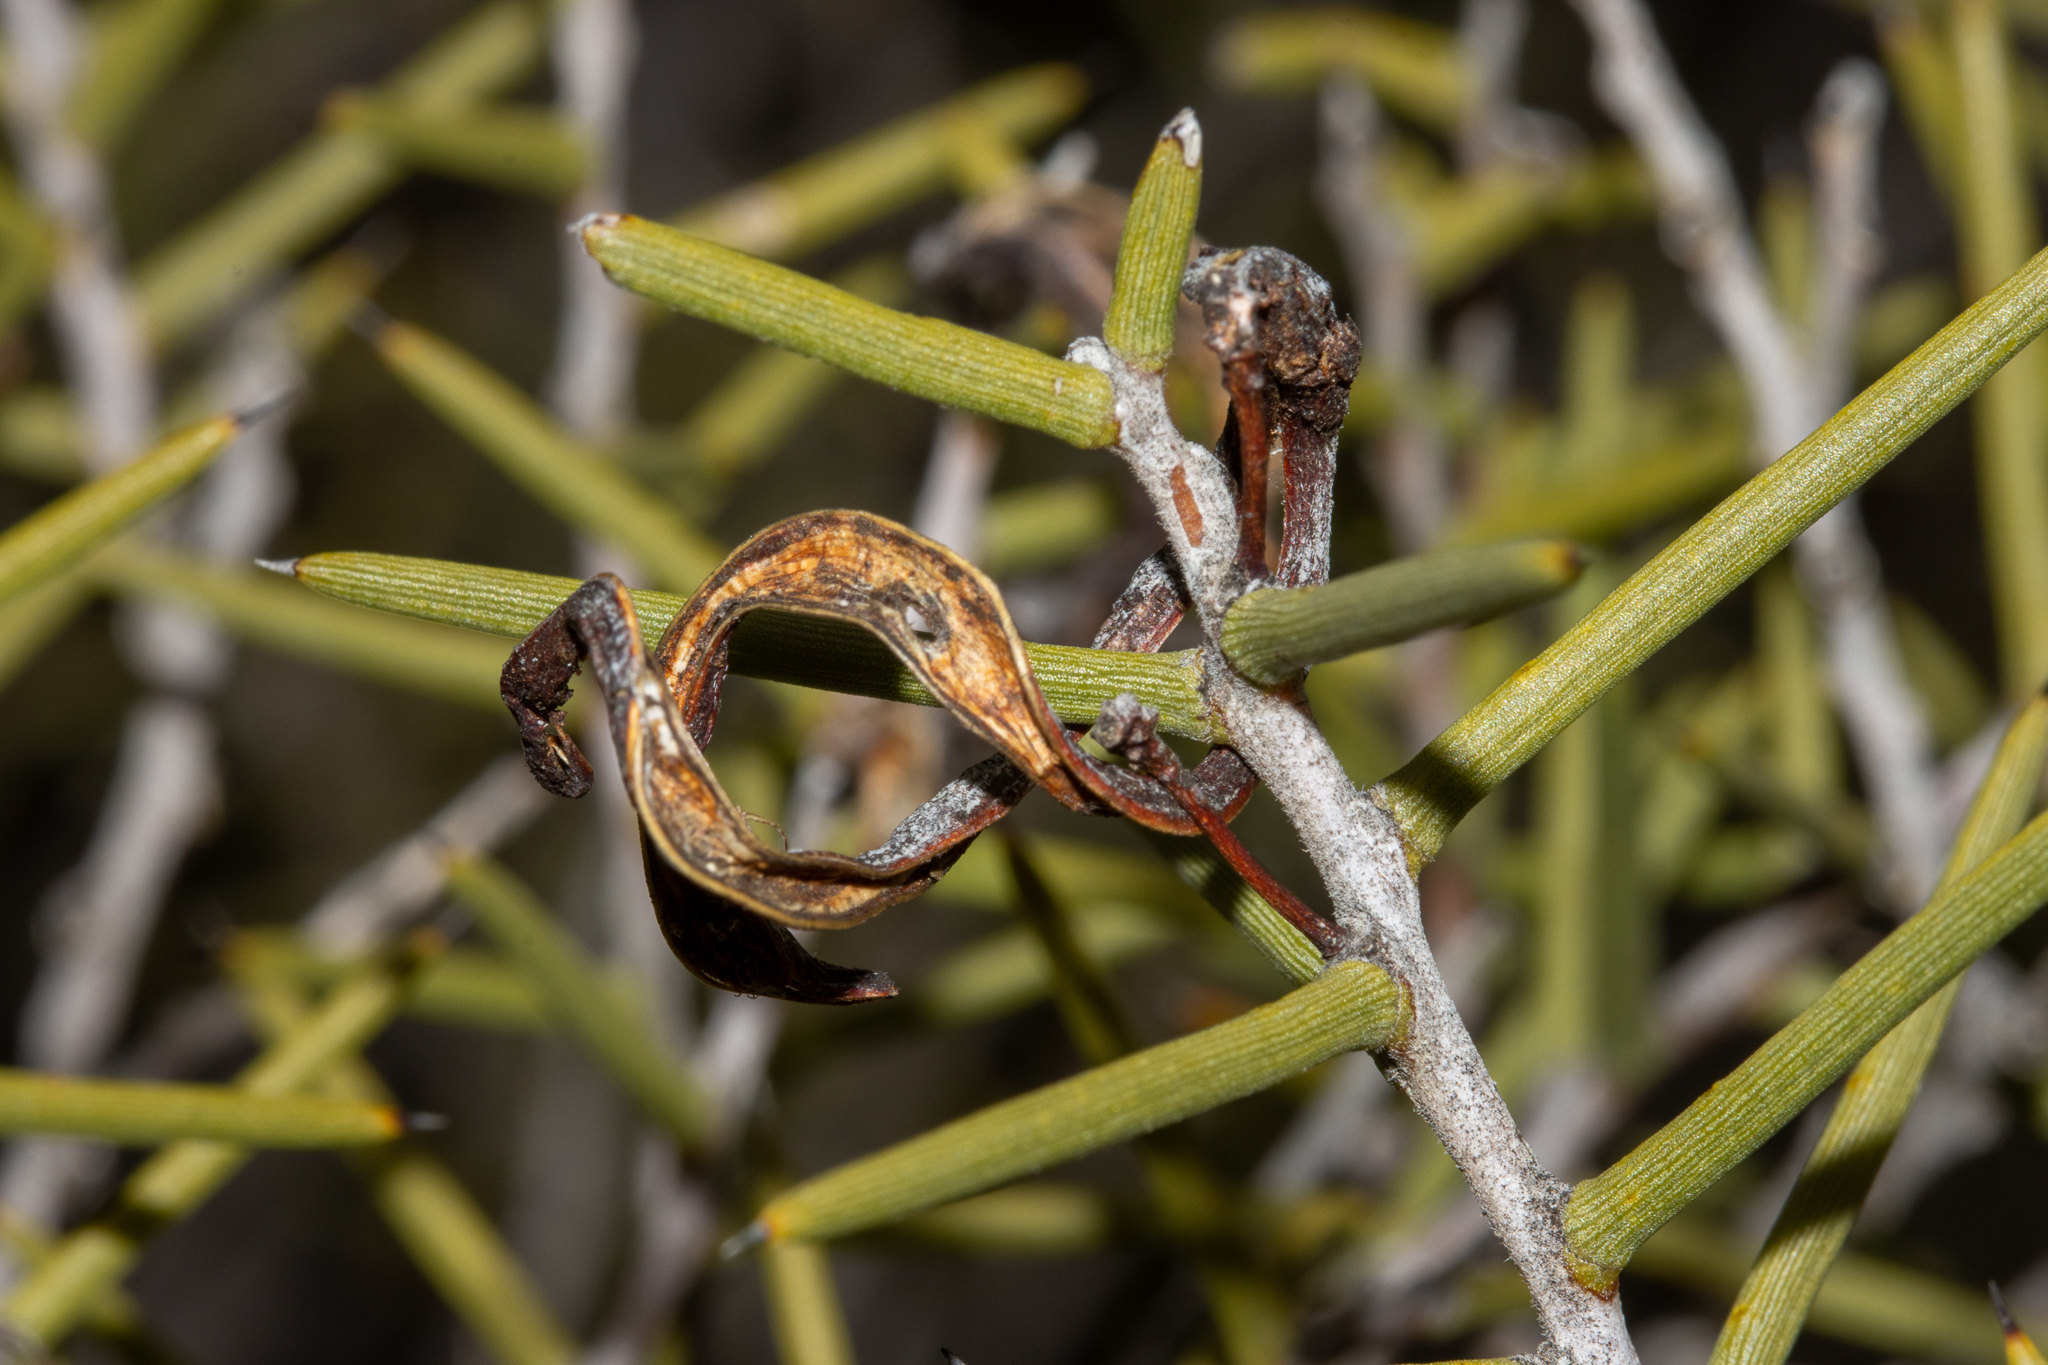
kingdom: Plantae
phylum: Tracheophyta
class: Magnoliopsida
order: Fabales
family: Fabaceae
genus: Acacia
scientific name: Acacia nyssophylla
